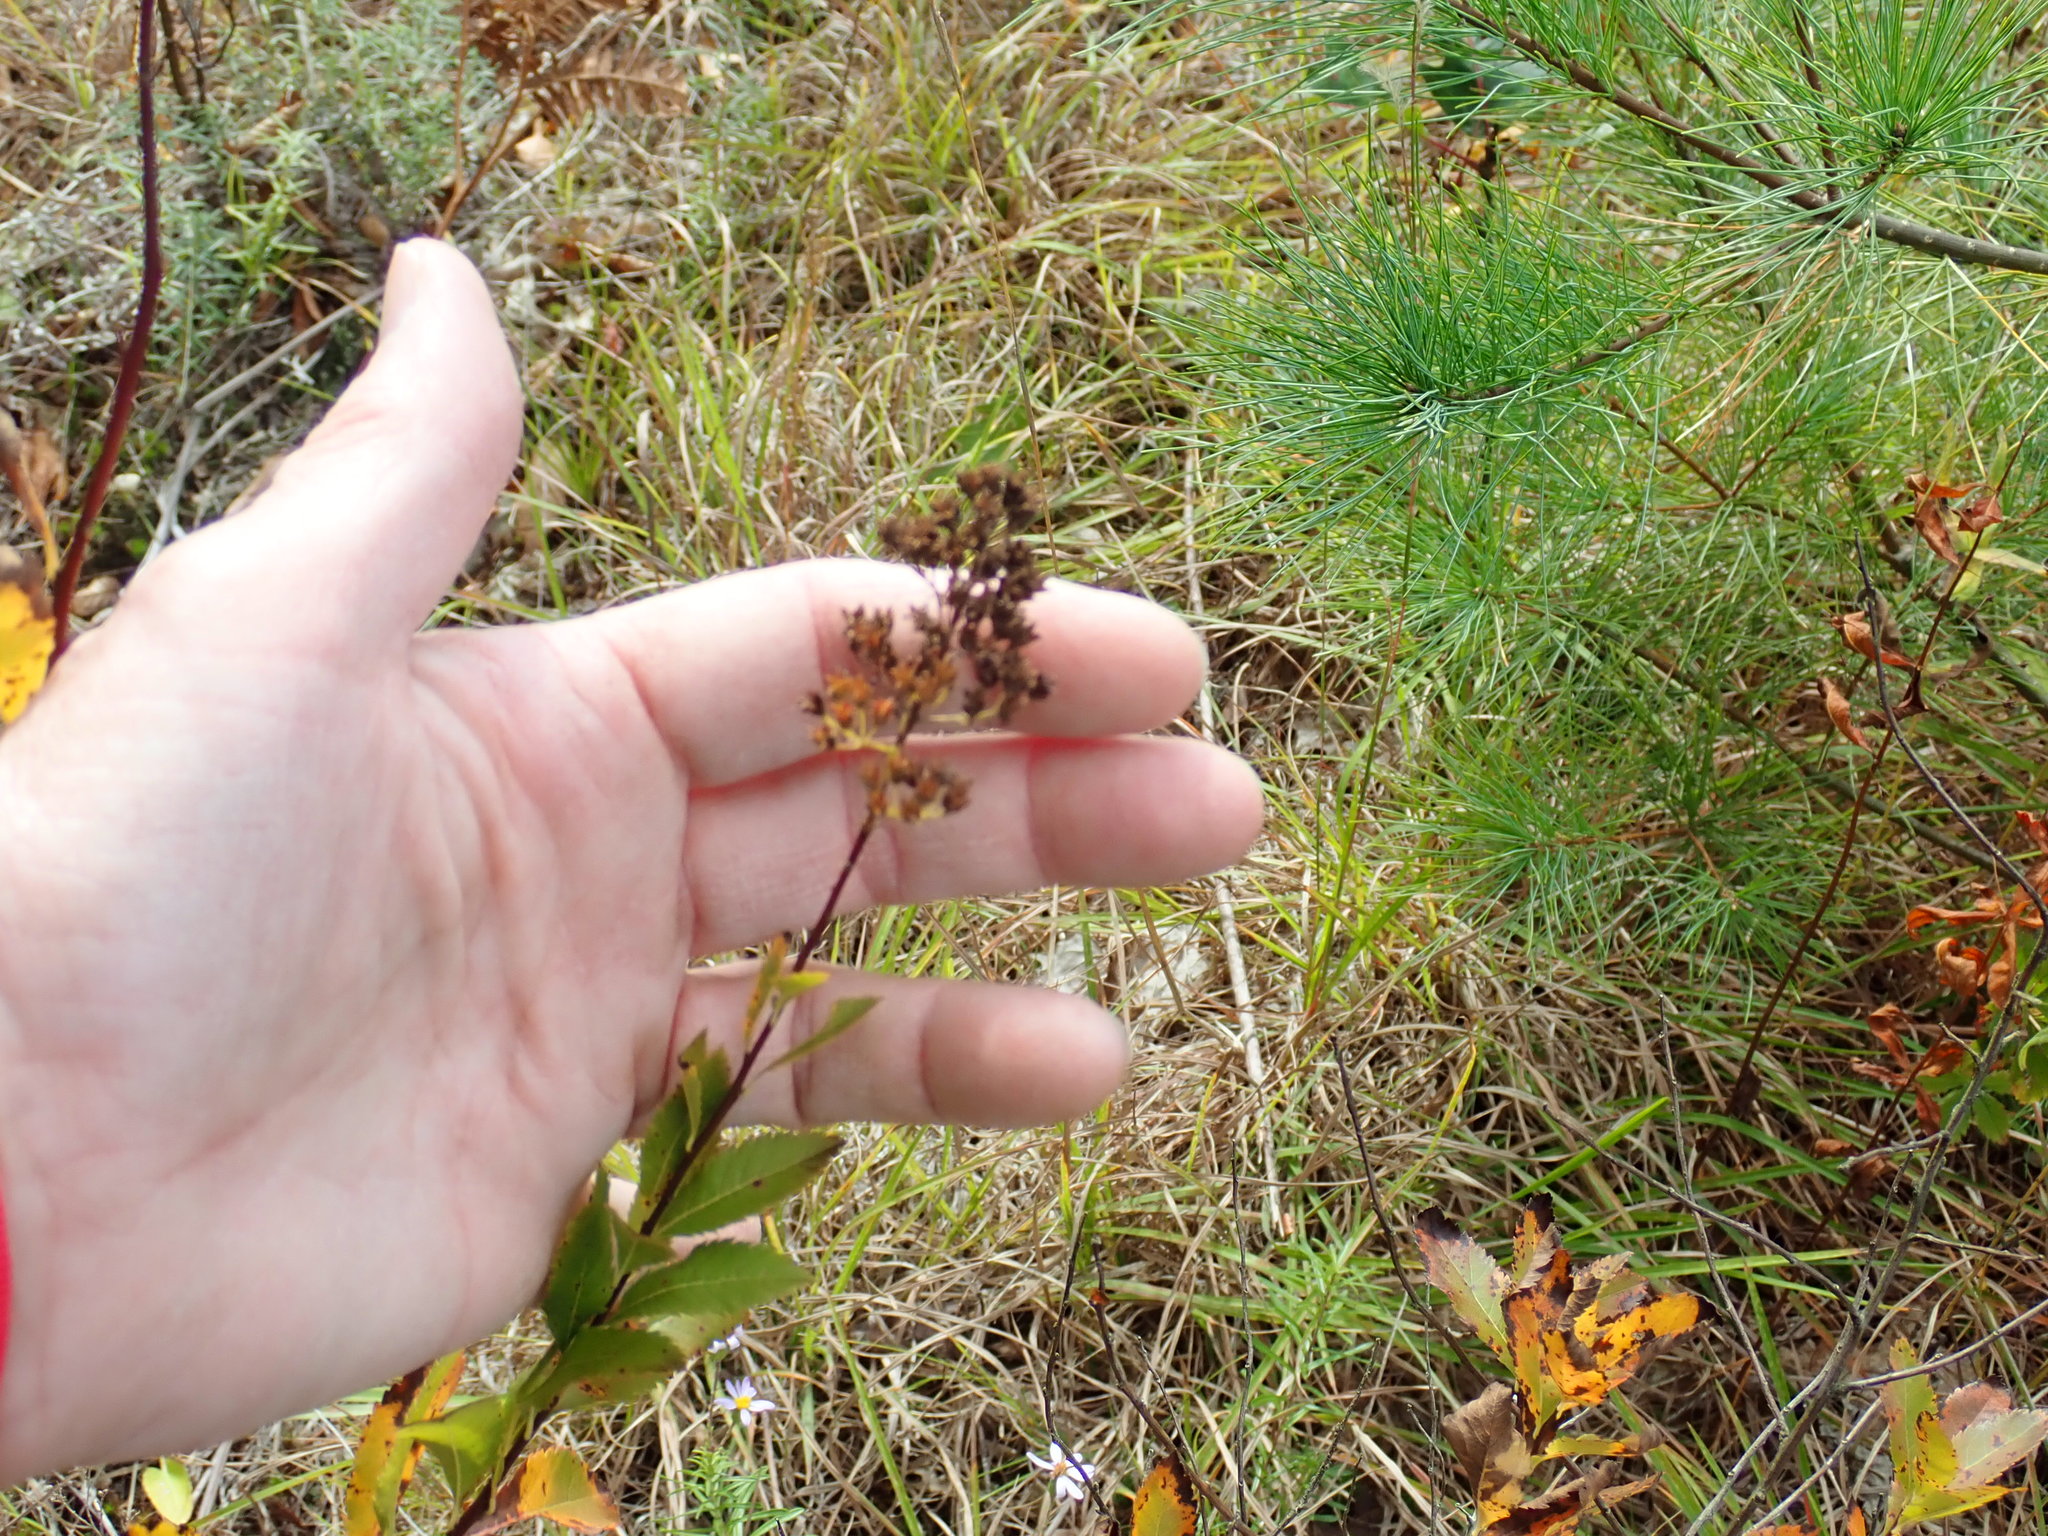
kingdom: Plantae
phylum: Tracheophyta
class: Magnoliopsida
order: Rosales
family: Rosaceae
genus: Spiraea
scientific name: Spiraea alba
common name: Pale bridewort
